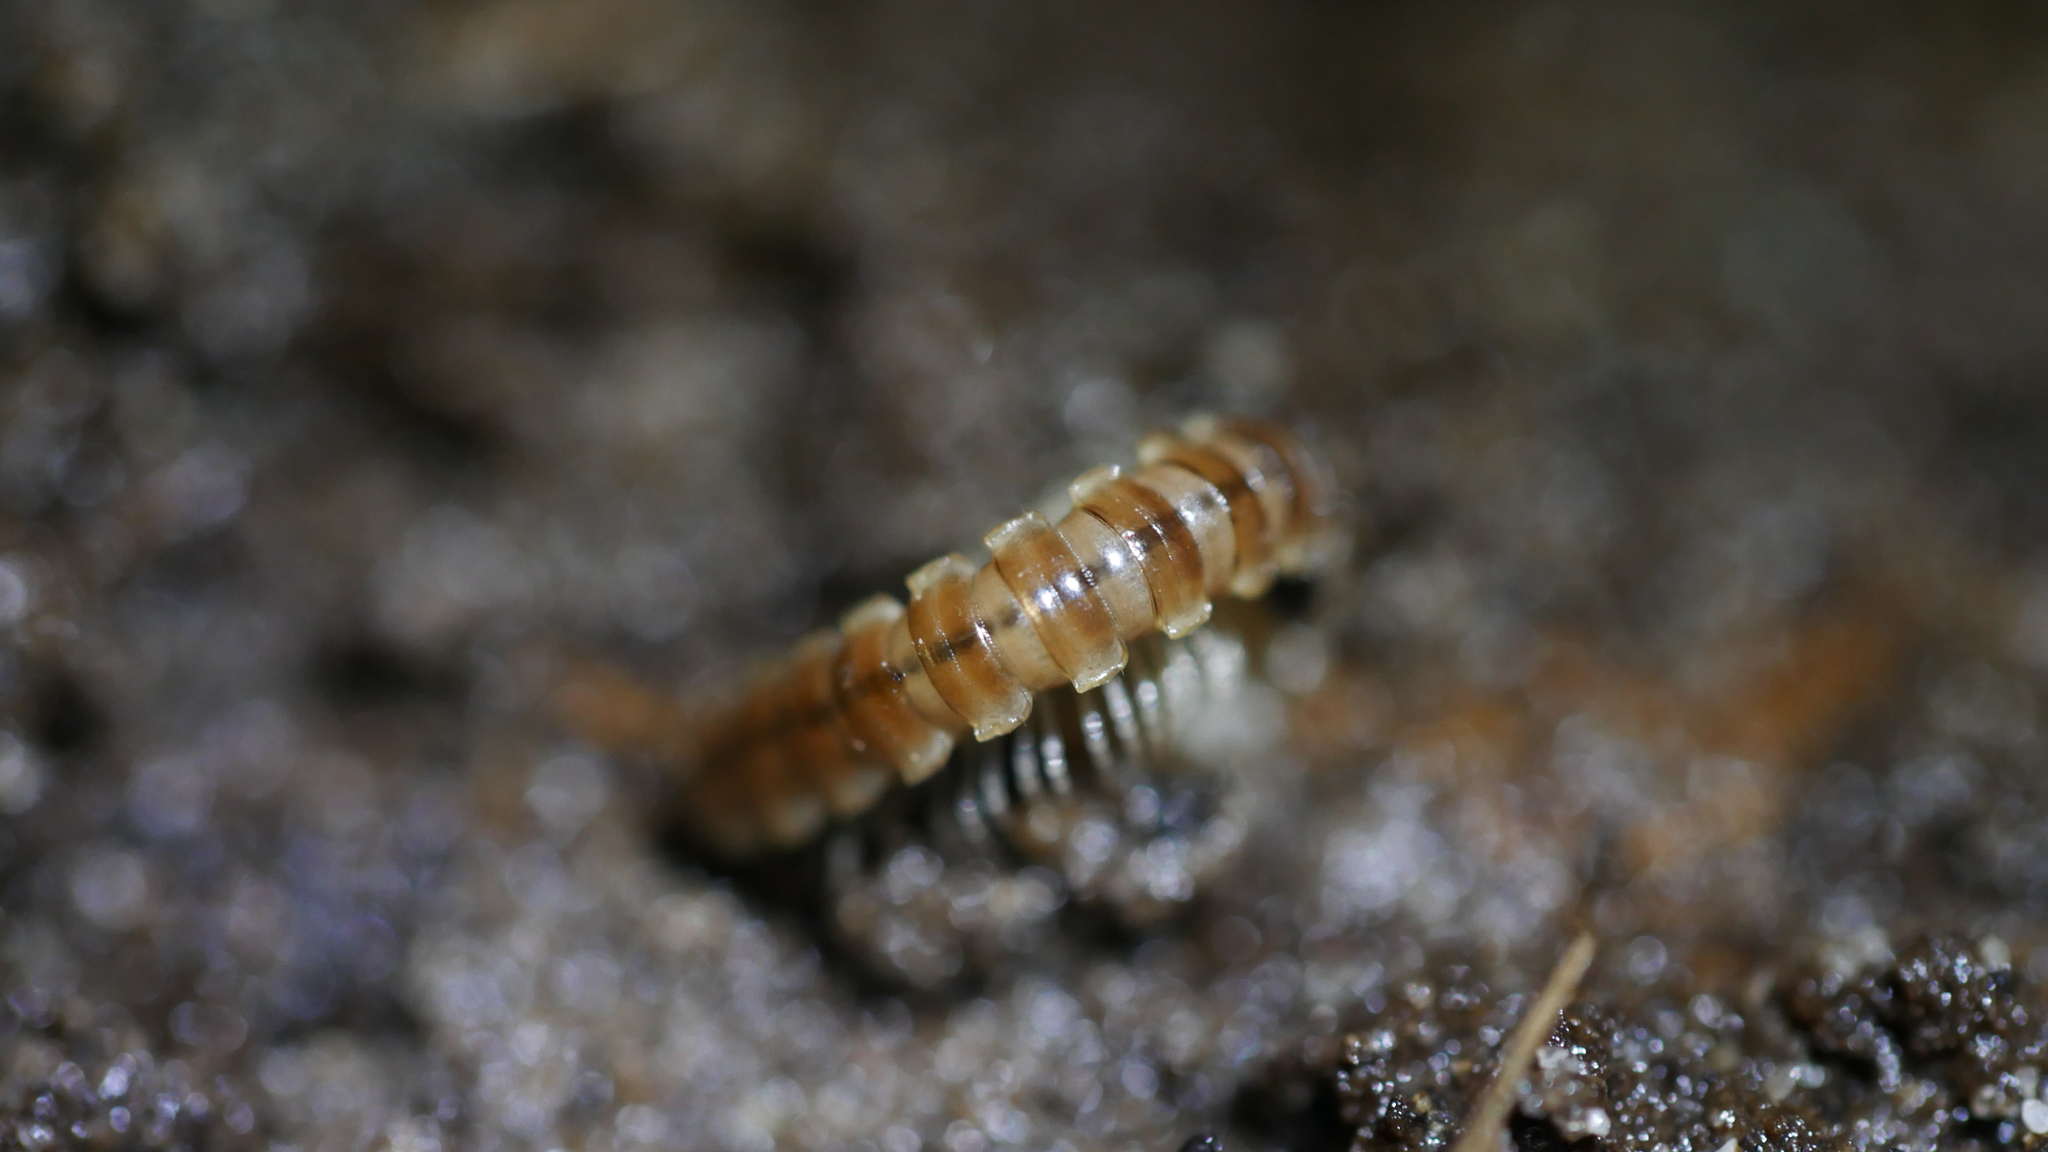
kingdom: Animalia
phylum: Arthropoda
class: Diplopoda
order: Polydesmida
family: Paradoxosomatidae
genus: Oxidus
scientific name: Oxidus gracilis
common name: Greenhouse millipede
